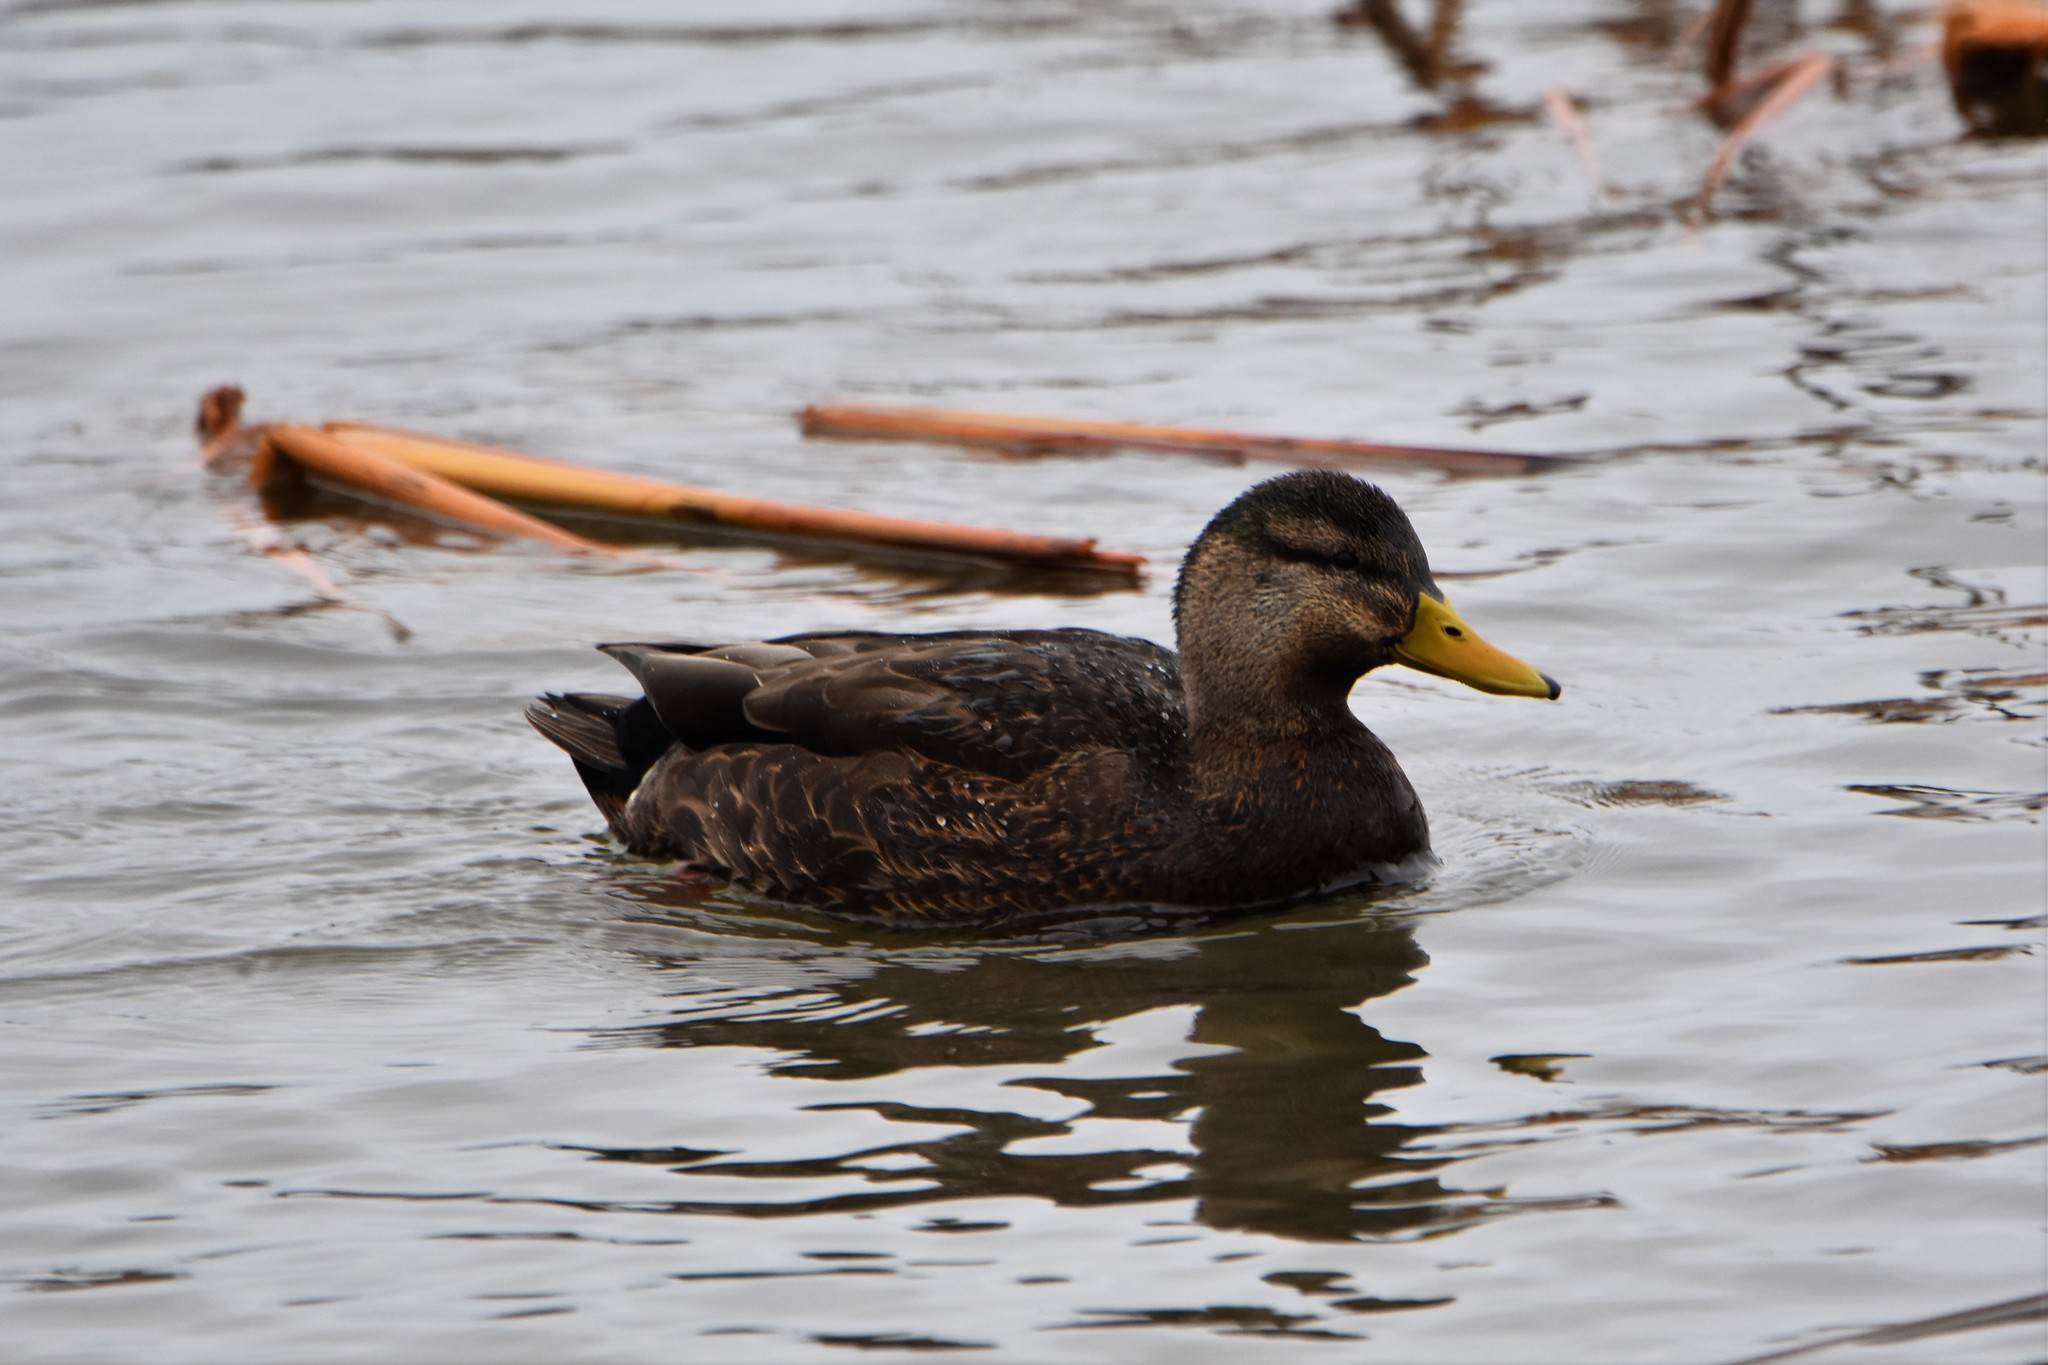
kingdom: Animalia
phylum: Chordata
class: Aves
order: Anseriformes
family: Anatidae
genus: Anas
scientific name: Anas rubripes
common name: American black duck
